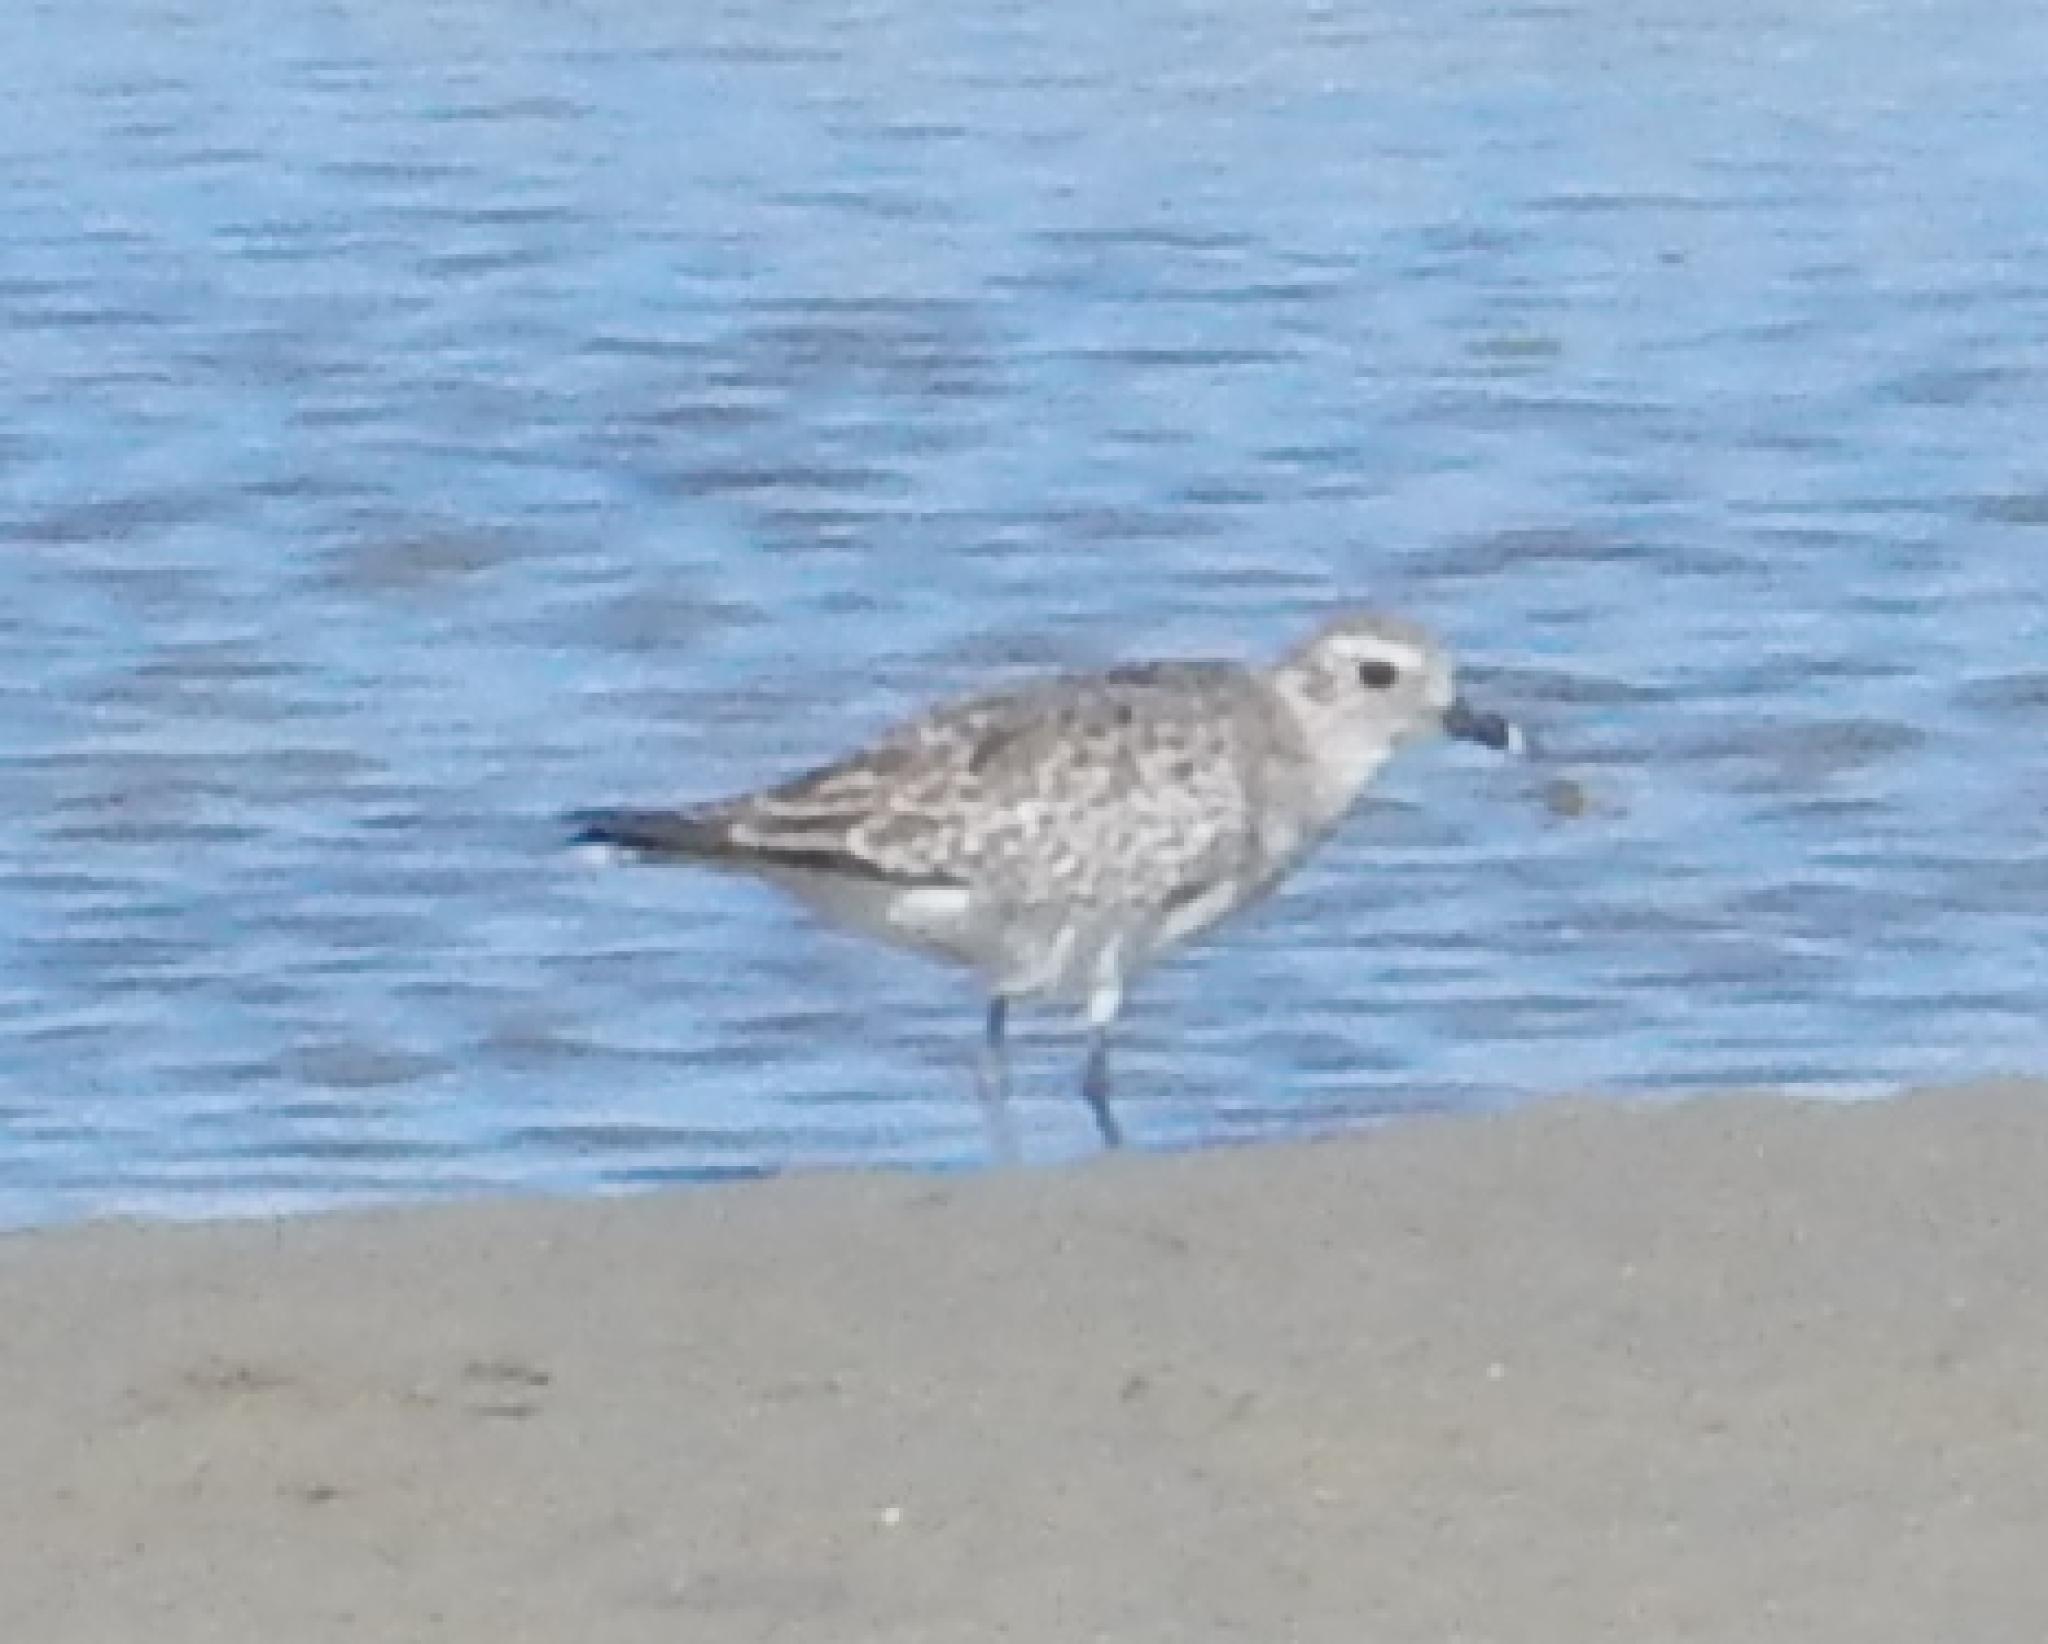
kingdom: Animalia
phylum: Chordata
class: Aves
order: Charadriiformes
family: Charadriidae
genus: Pluvialis
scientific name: Pluvialis squatarola
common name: Grey plover
